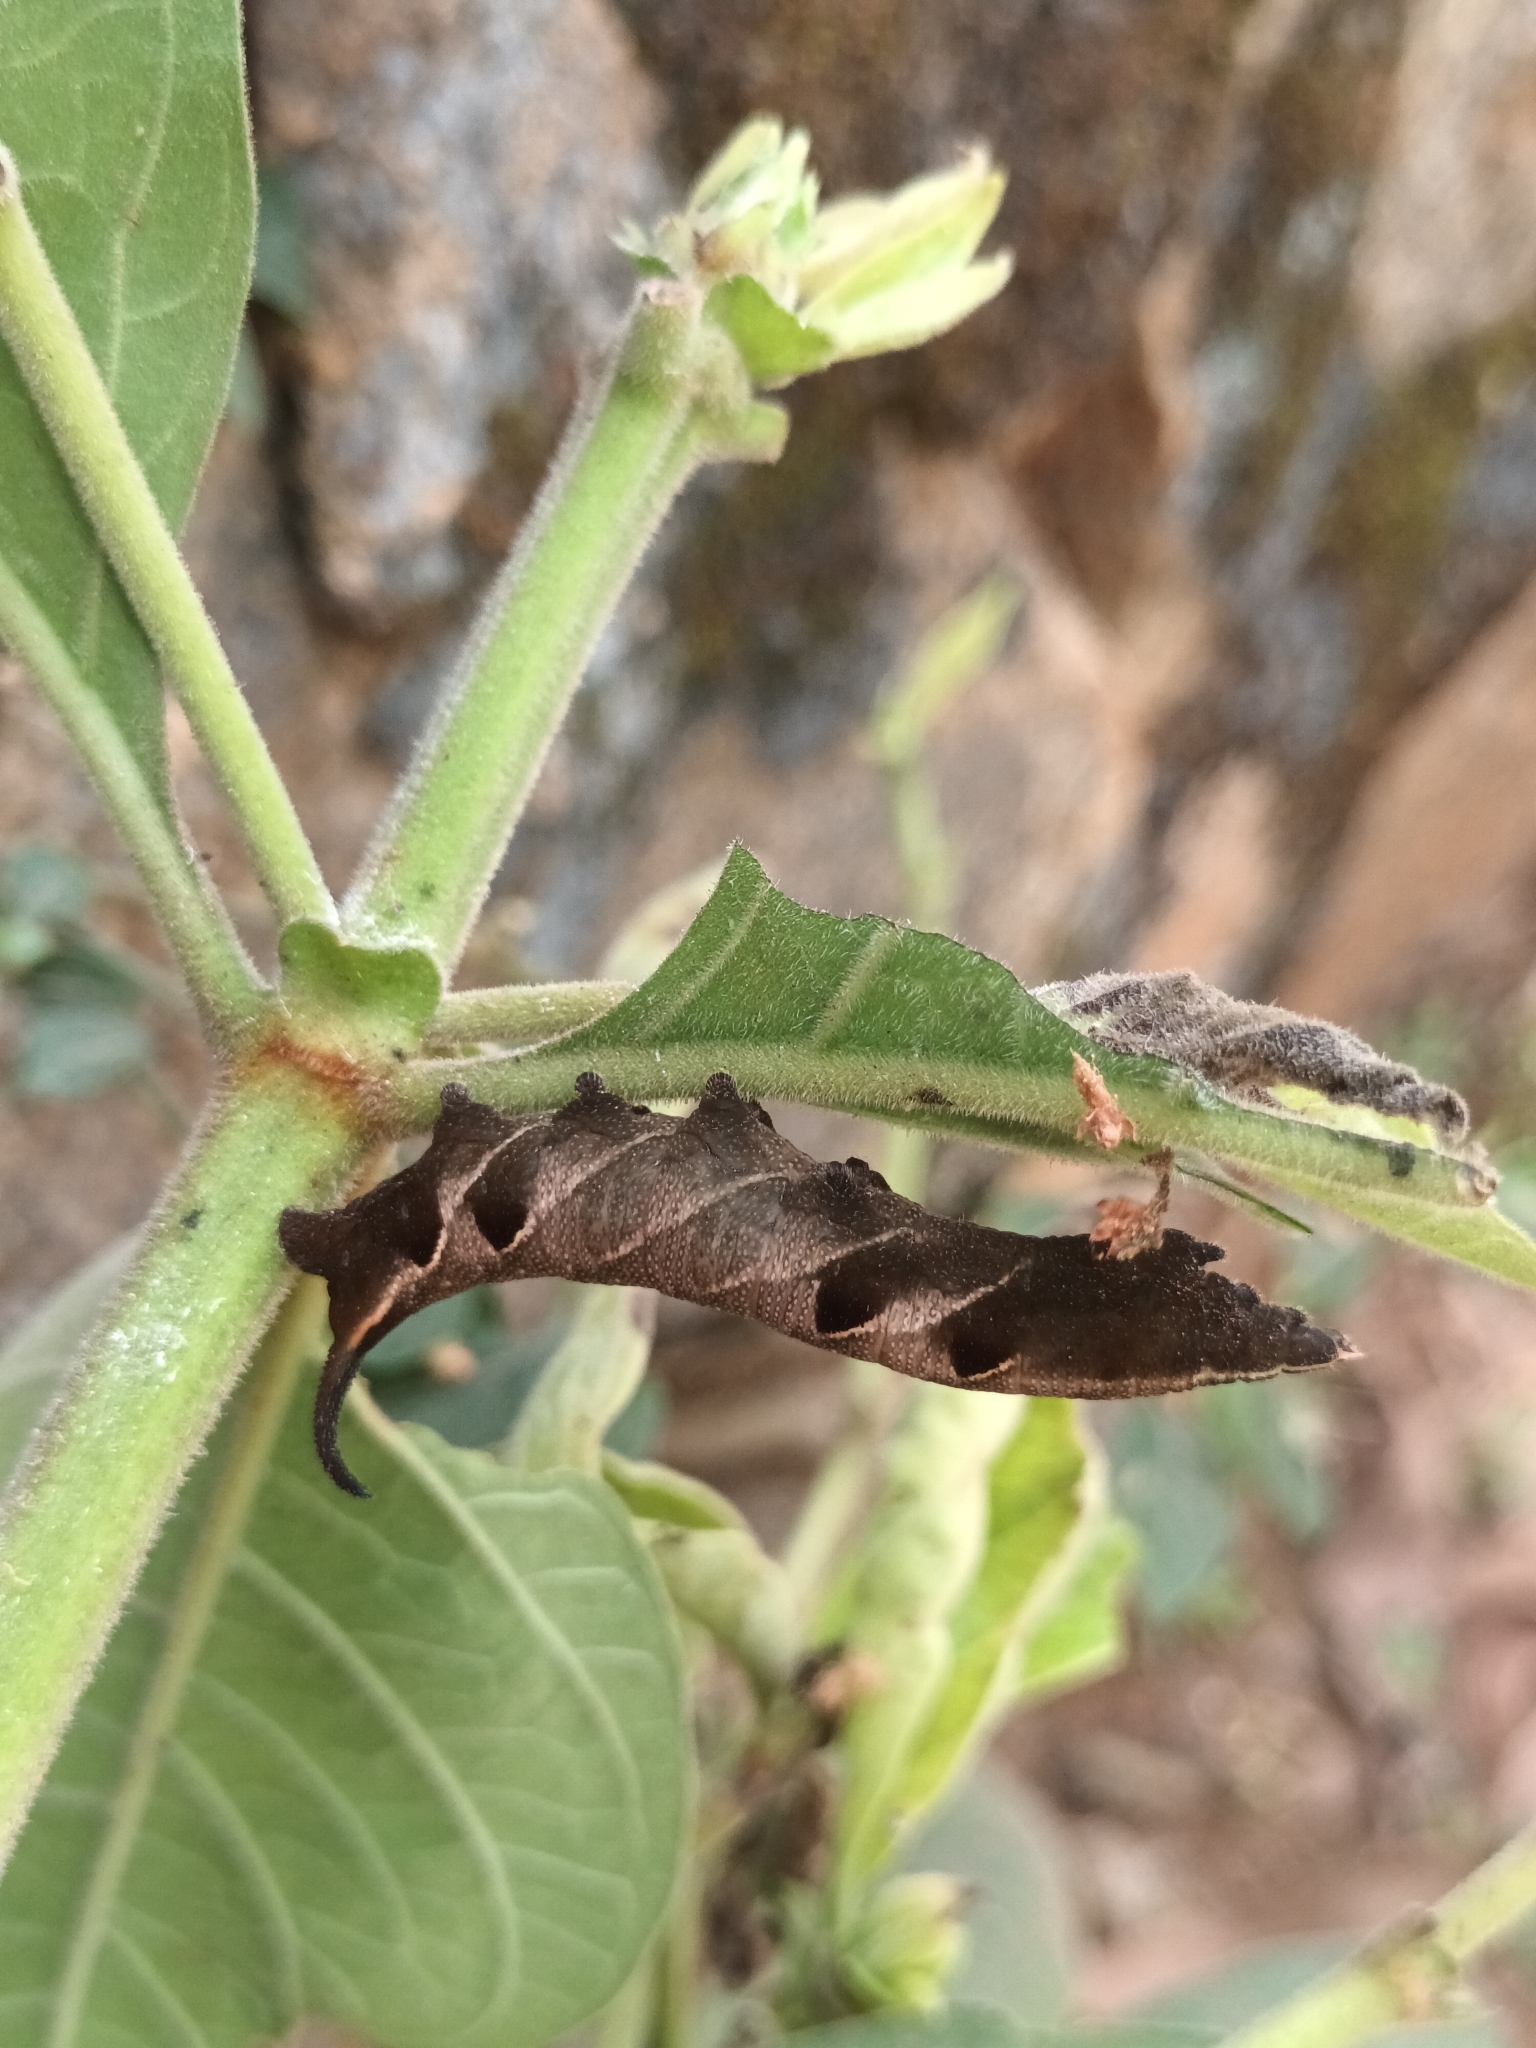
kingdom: Animalia
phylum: Arthropoda
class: Insecta
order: Lepidoptera
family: Sphingidae
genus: Neogurelca
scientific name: Neogurelca hyas
